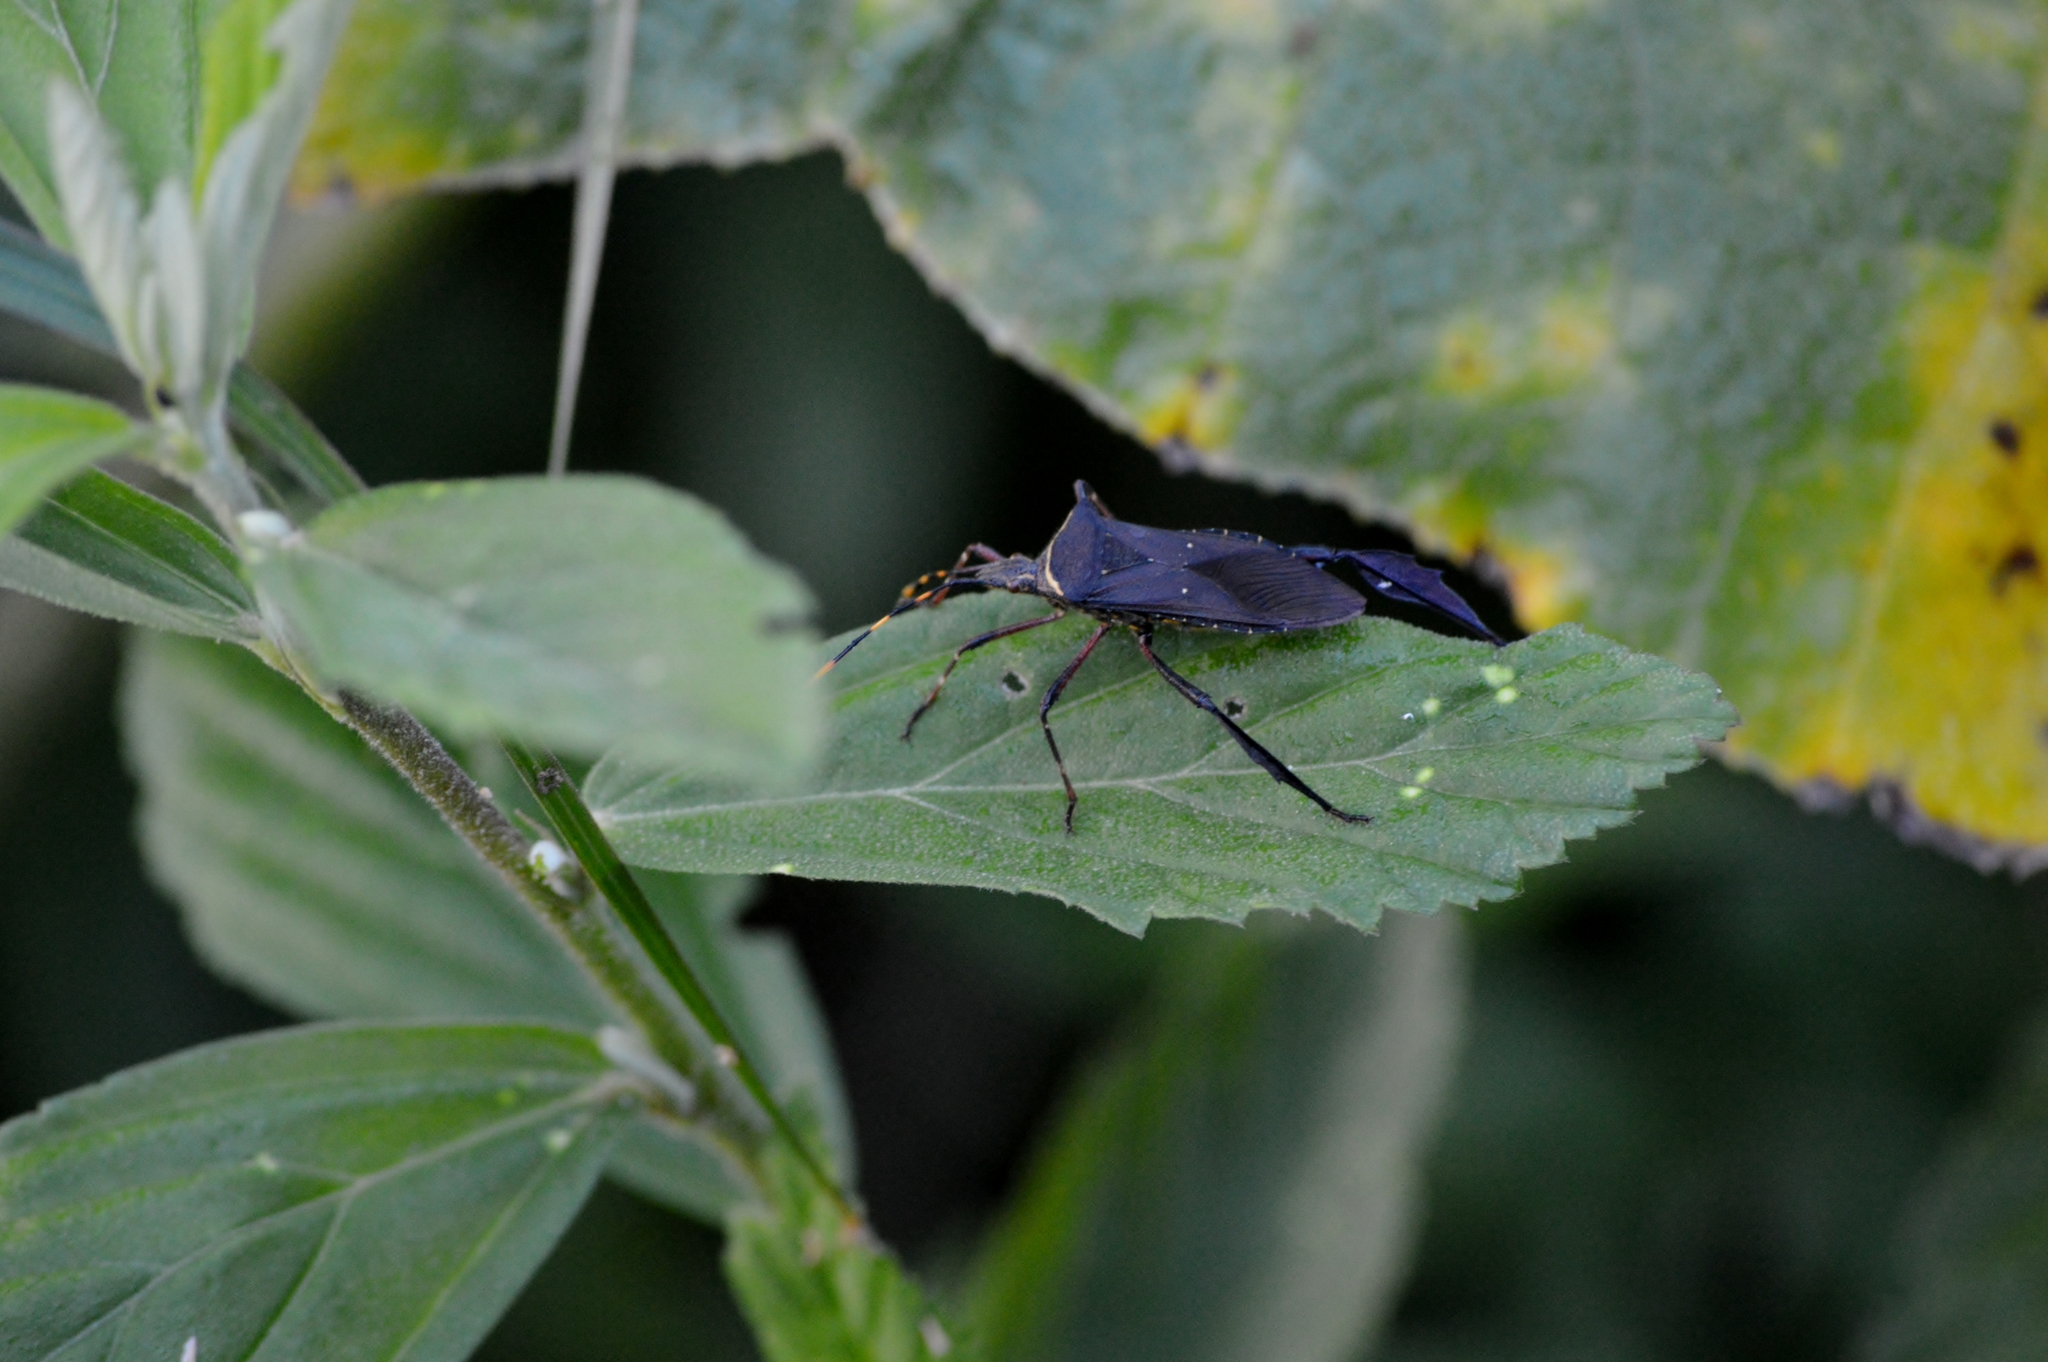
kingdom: Animalia
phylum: Arthropoda
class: Insecta
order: Hemiptera
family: Coreidae
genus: Leptoglossus
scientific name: Leptoglossus gonagra
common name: Citron bug
